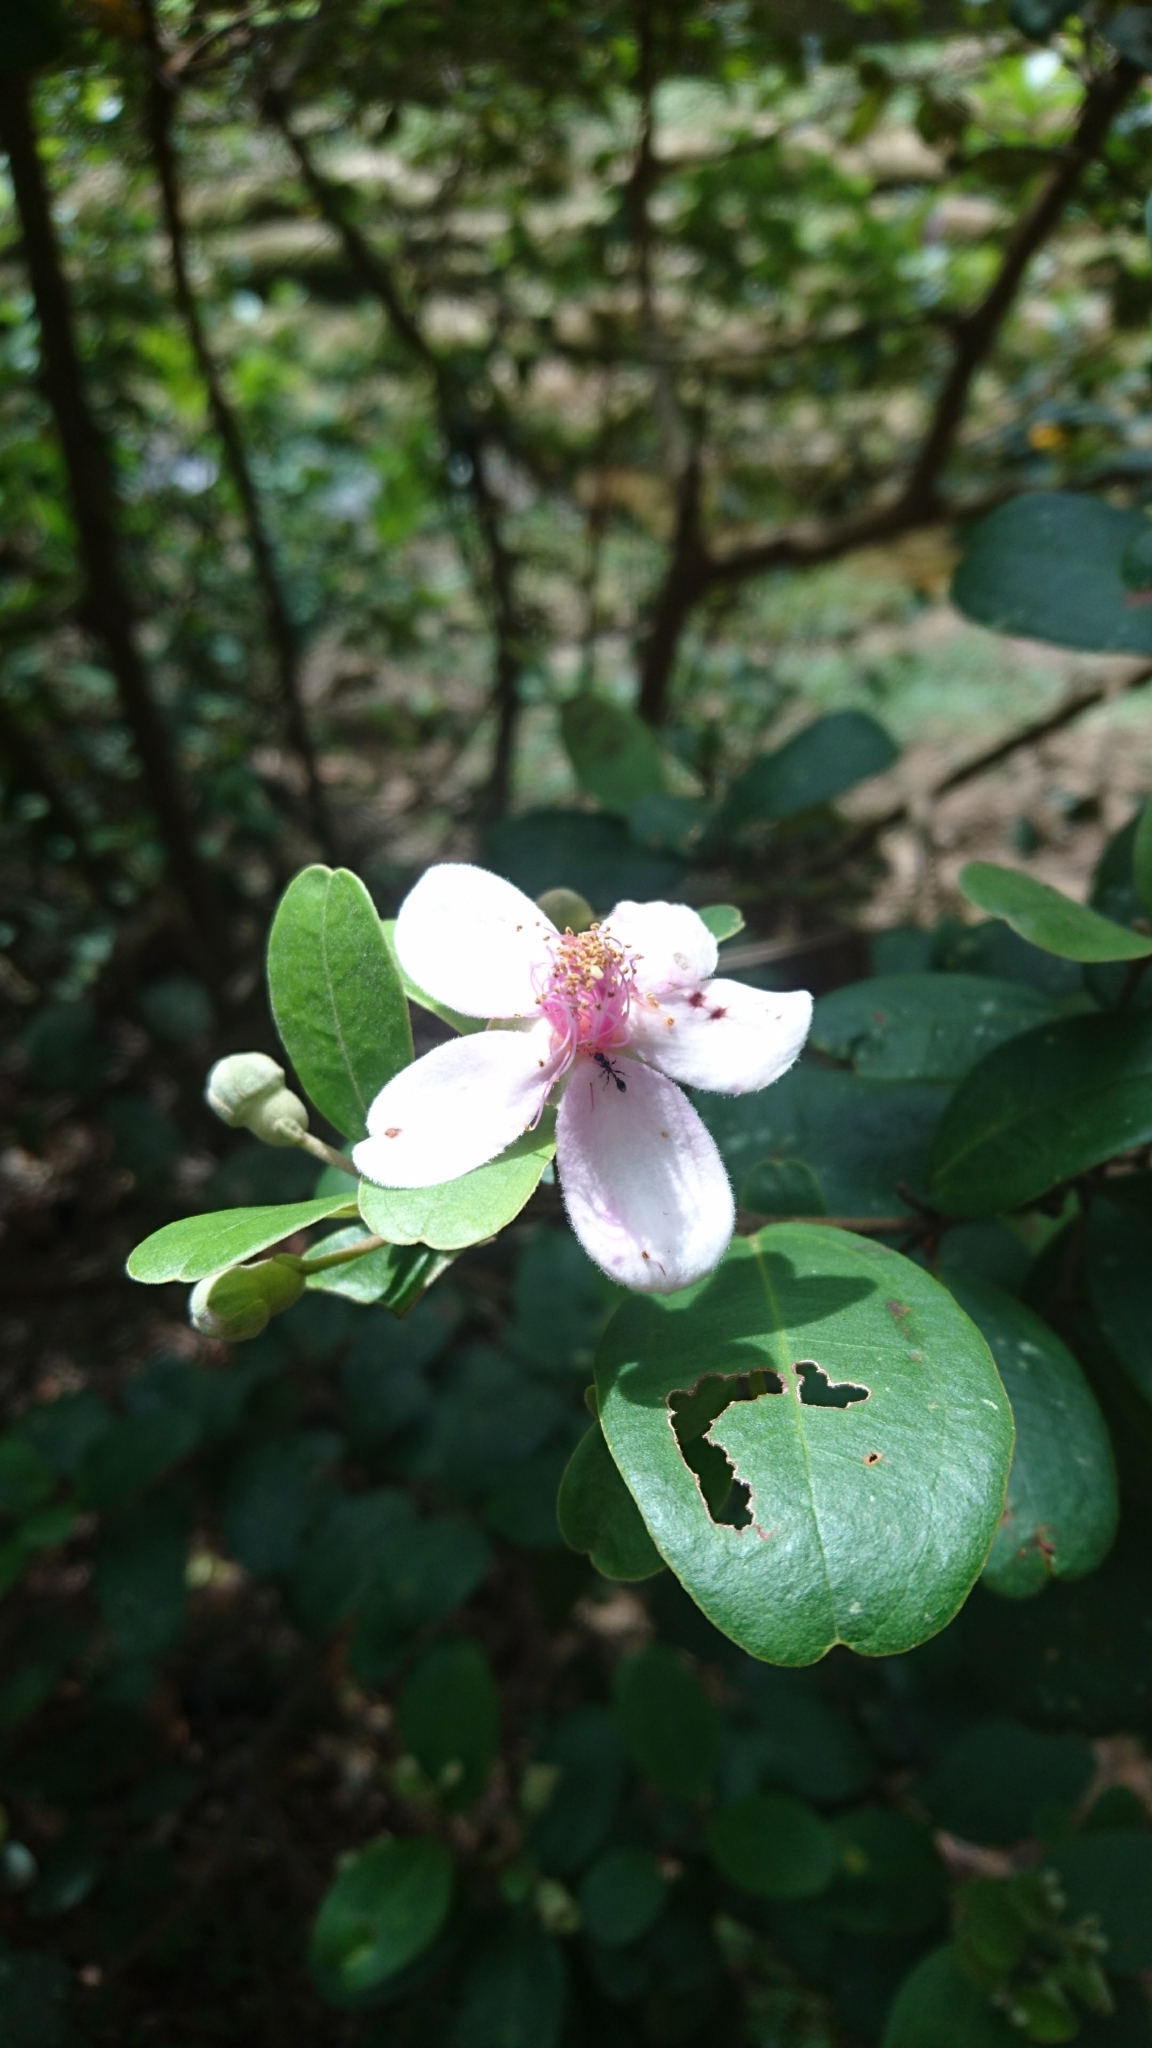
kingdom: Plantae
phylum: Tracheophyta
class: Magnoliopsida
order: Myrtales
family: Myrtaceae
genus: Rhodomyrtus
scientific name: Rhodomyrtus tomentosa
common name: Rose myrtle
